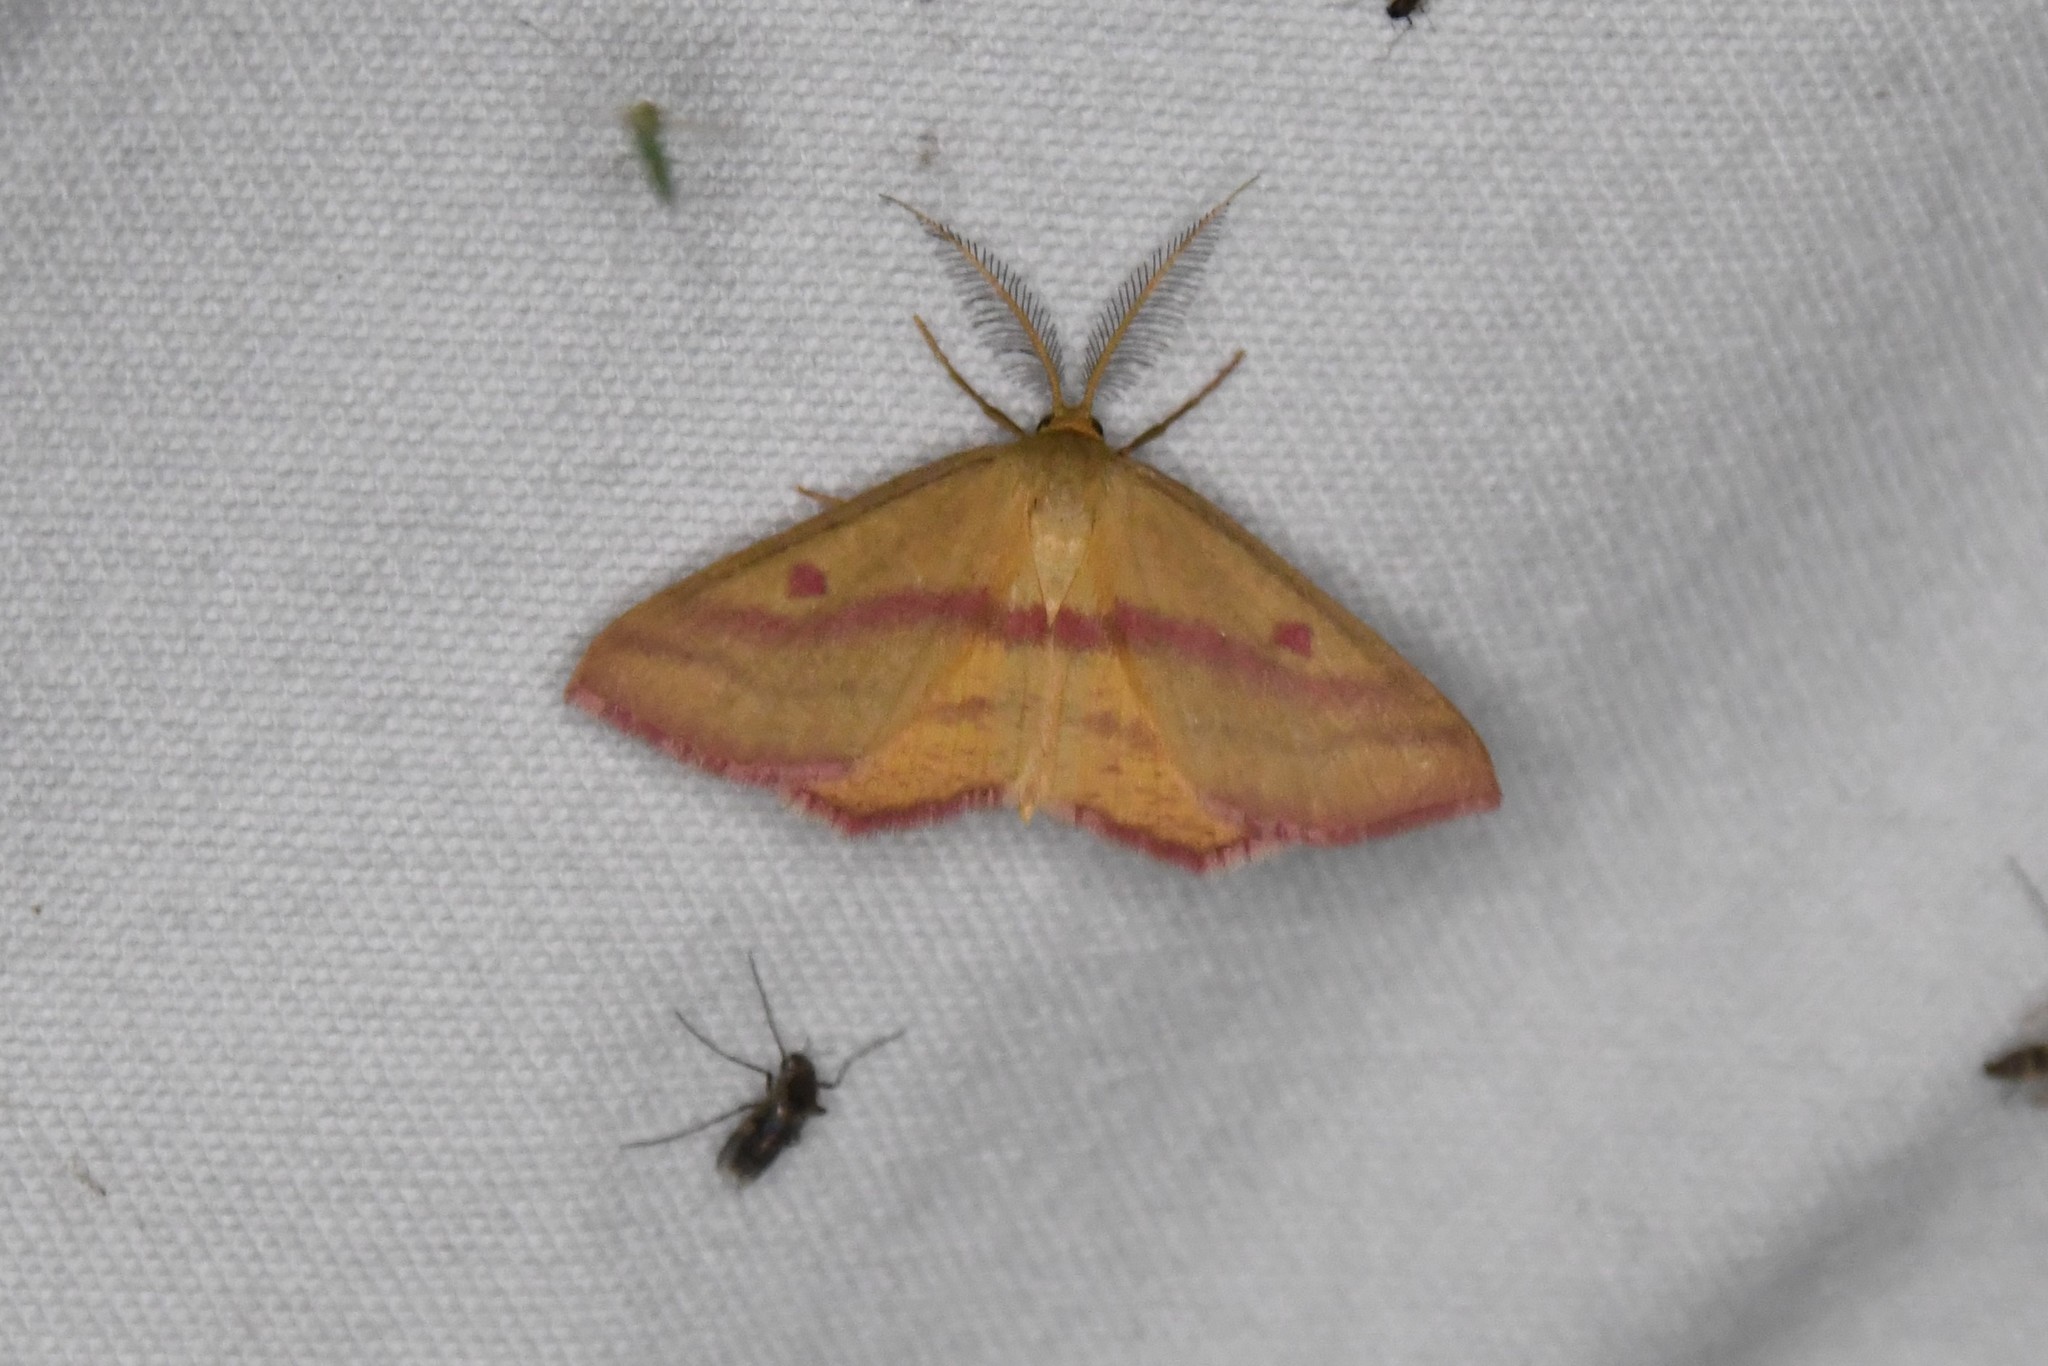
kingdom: Animalia
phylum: Arthropoda
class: Insecta
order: Lepidoptera
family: Geometridae
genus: Haematopis
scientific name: Haematopis grataria
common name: Chickweed geometer
